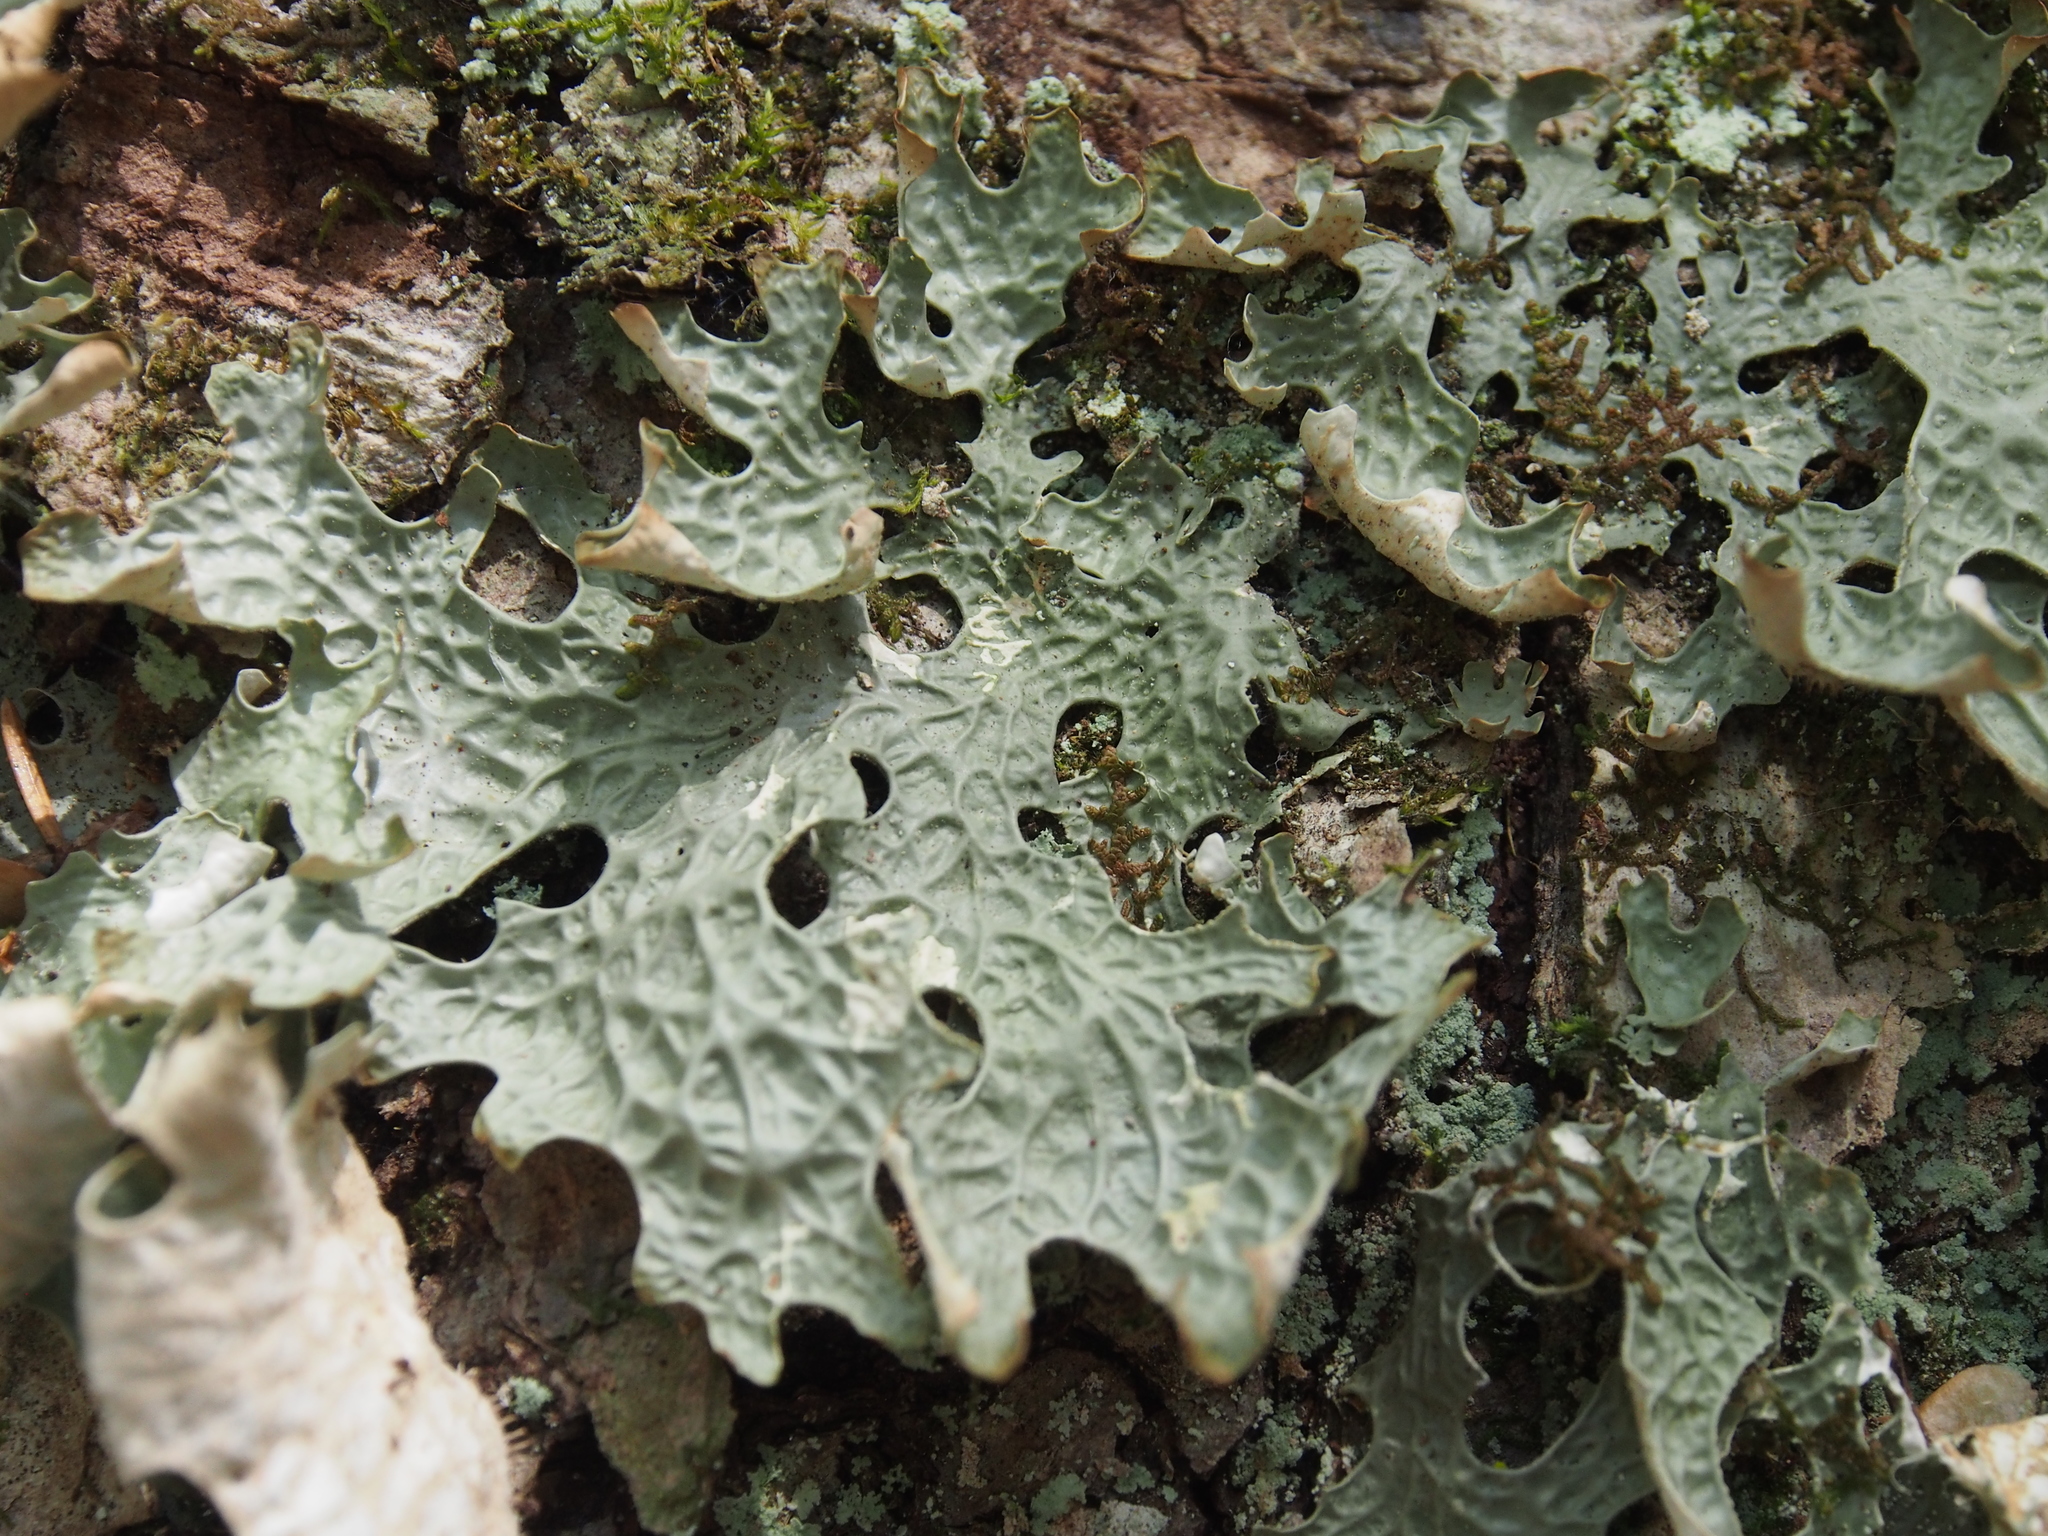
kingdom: Fungi
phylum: Ascomycota
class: Lecanoromycetes
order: Peltigerales
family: Lobariaceae
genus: Lobaria
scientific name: Lobaria pulmonaria
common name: Lungwort
